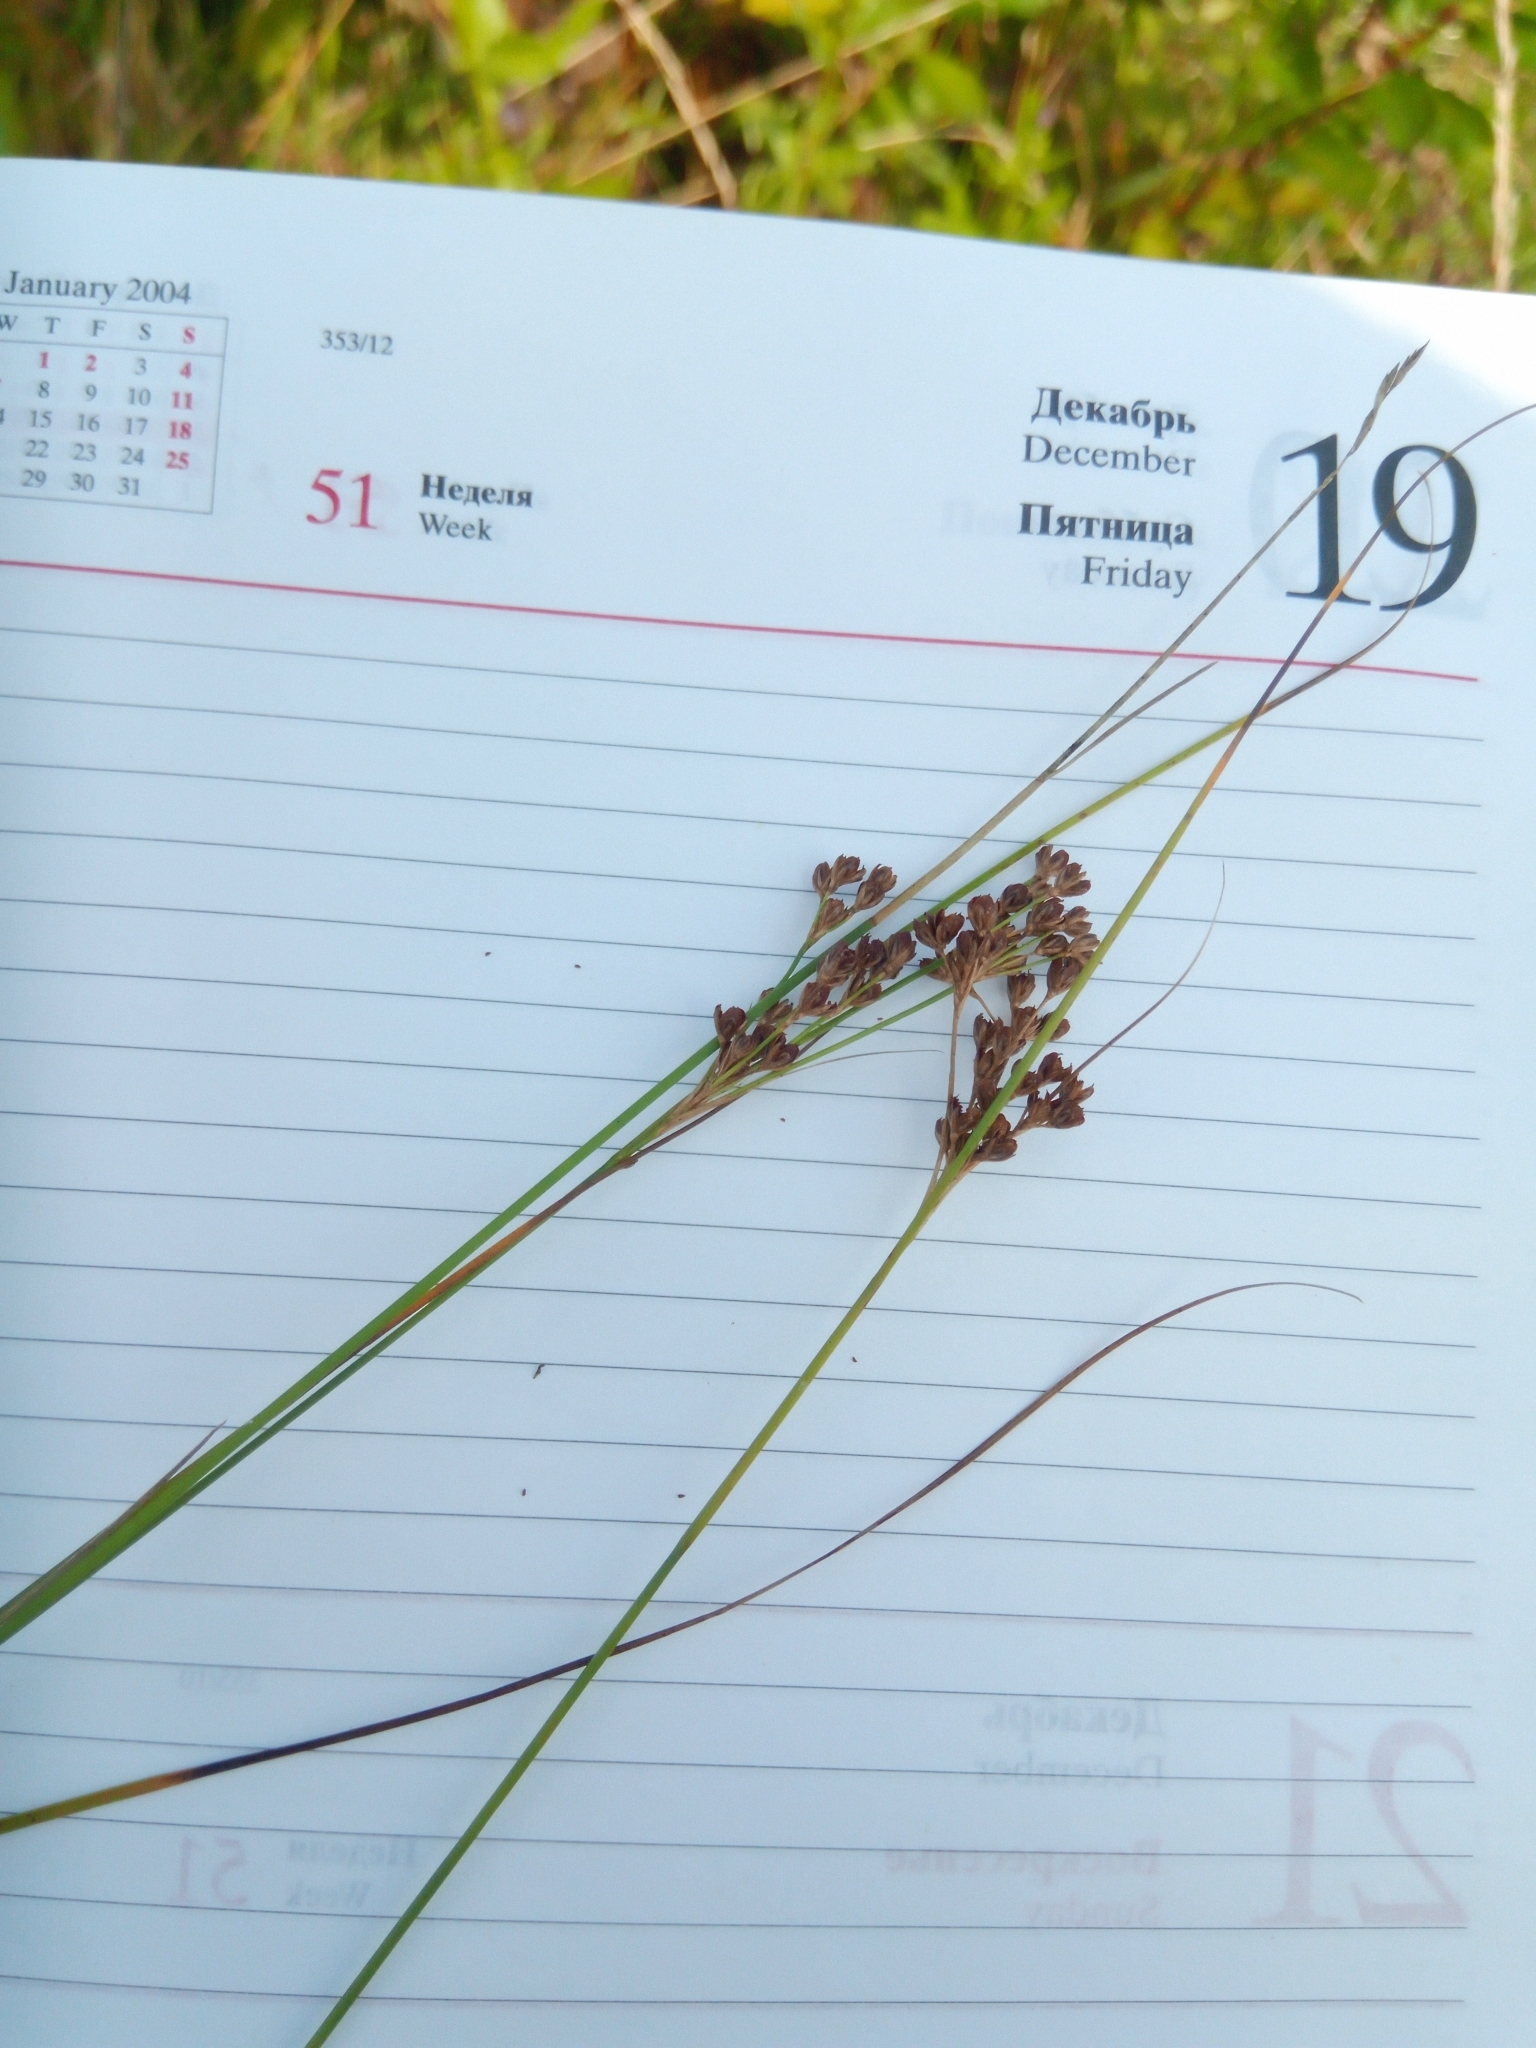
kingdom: Plantae
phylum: Tracheophyta
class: Liliopsida
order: Poales
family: Juncaceae
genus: Juncus
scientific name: Juncus compressus
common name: Round-fruited rush
